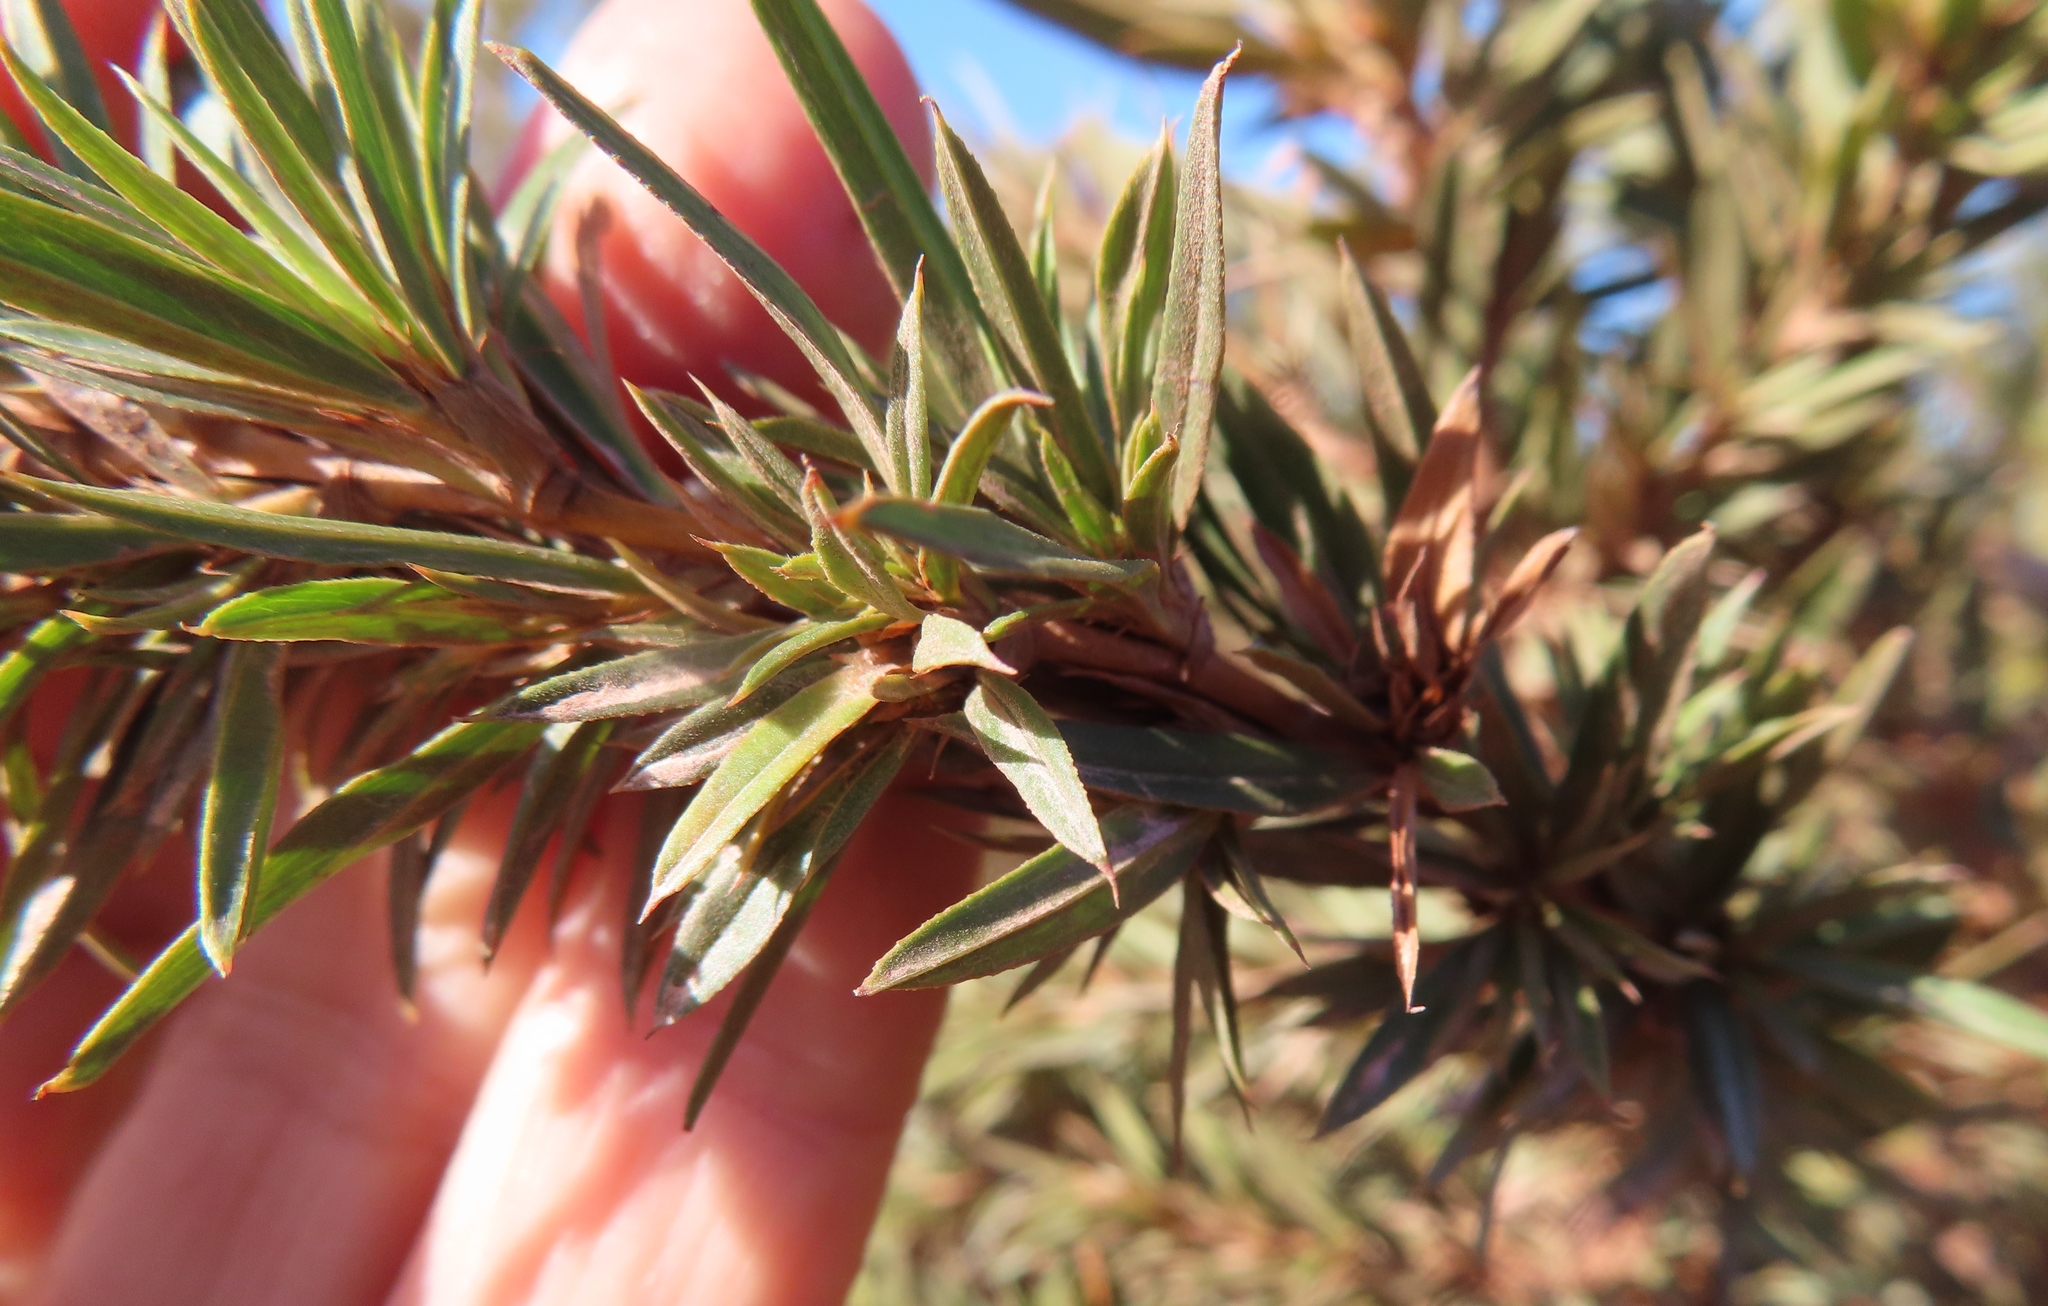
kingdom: Plantae
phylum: Tracheophyta
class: Magnoliopsida
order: Rosales
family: Rosaceae
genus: Cliffortia
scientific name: Cliffortia longifolia
